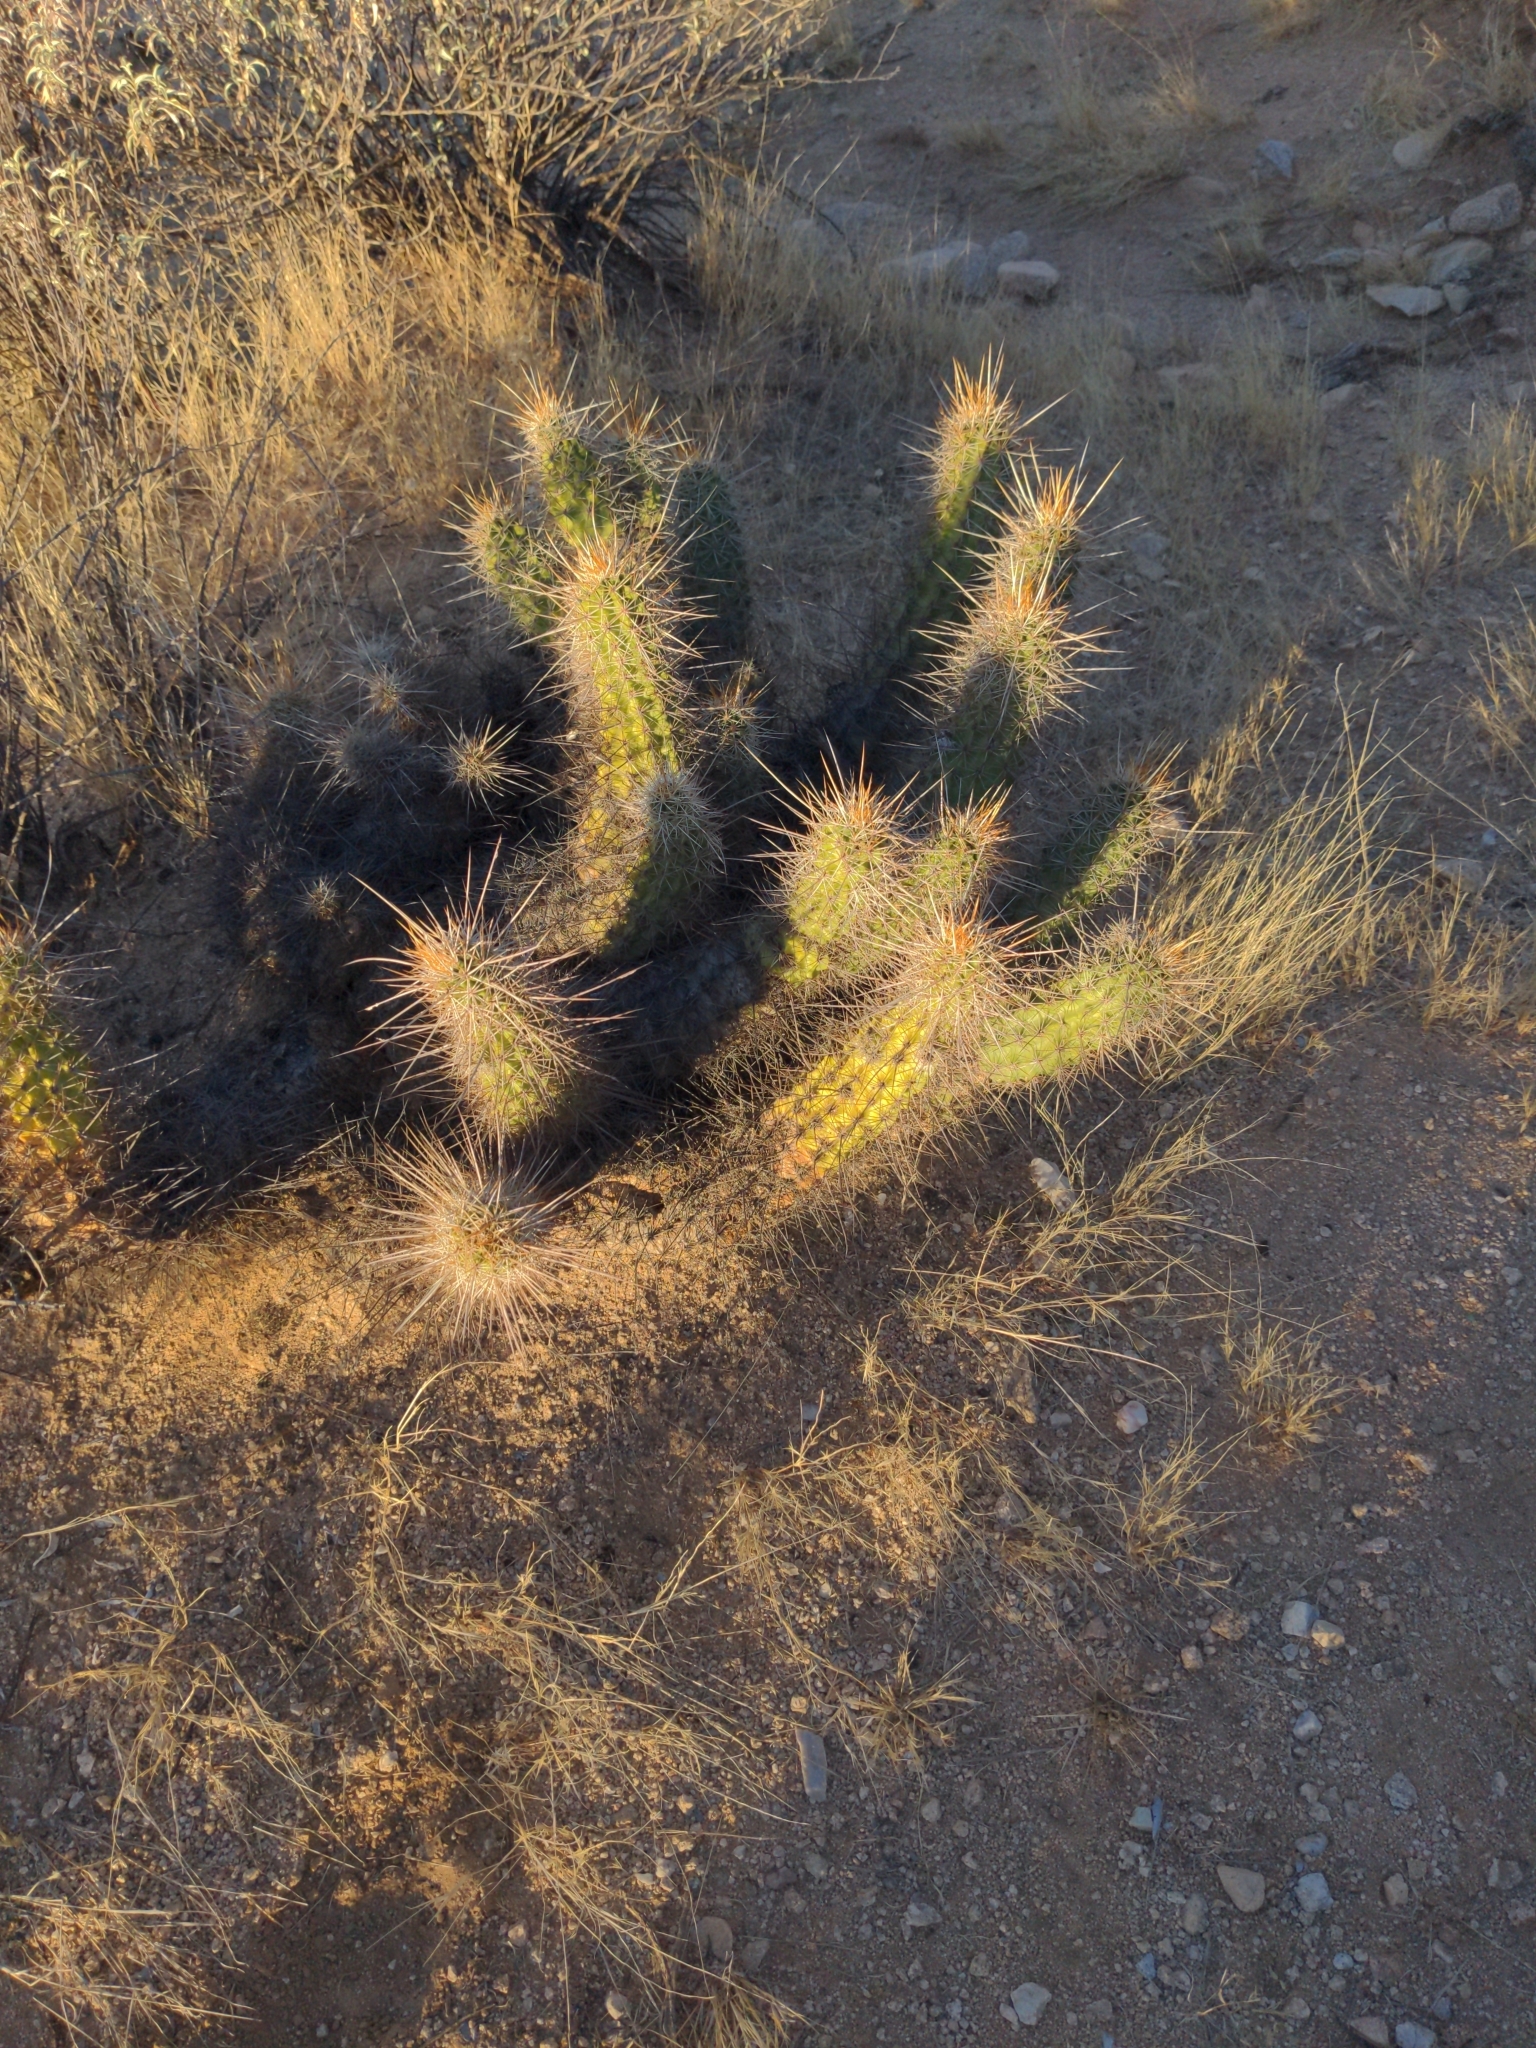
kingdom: Plantae
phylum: Tracheophyta
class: Magnoliopsida
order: Caryophyllales
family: Cactaceae
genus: Echinocereus
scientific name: Echinocereus engelmannii
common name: Engelmann's hedgehog cactus
